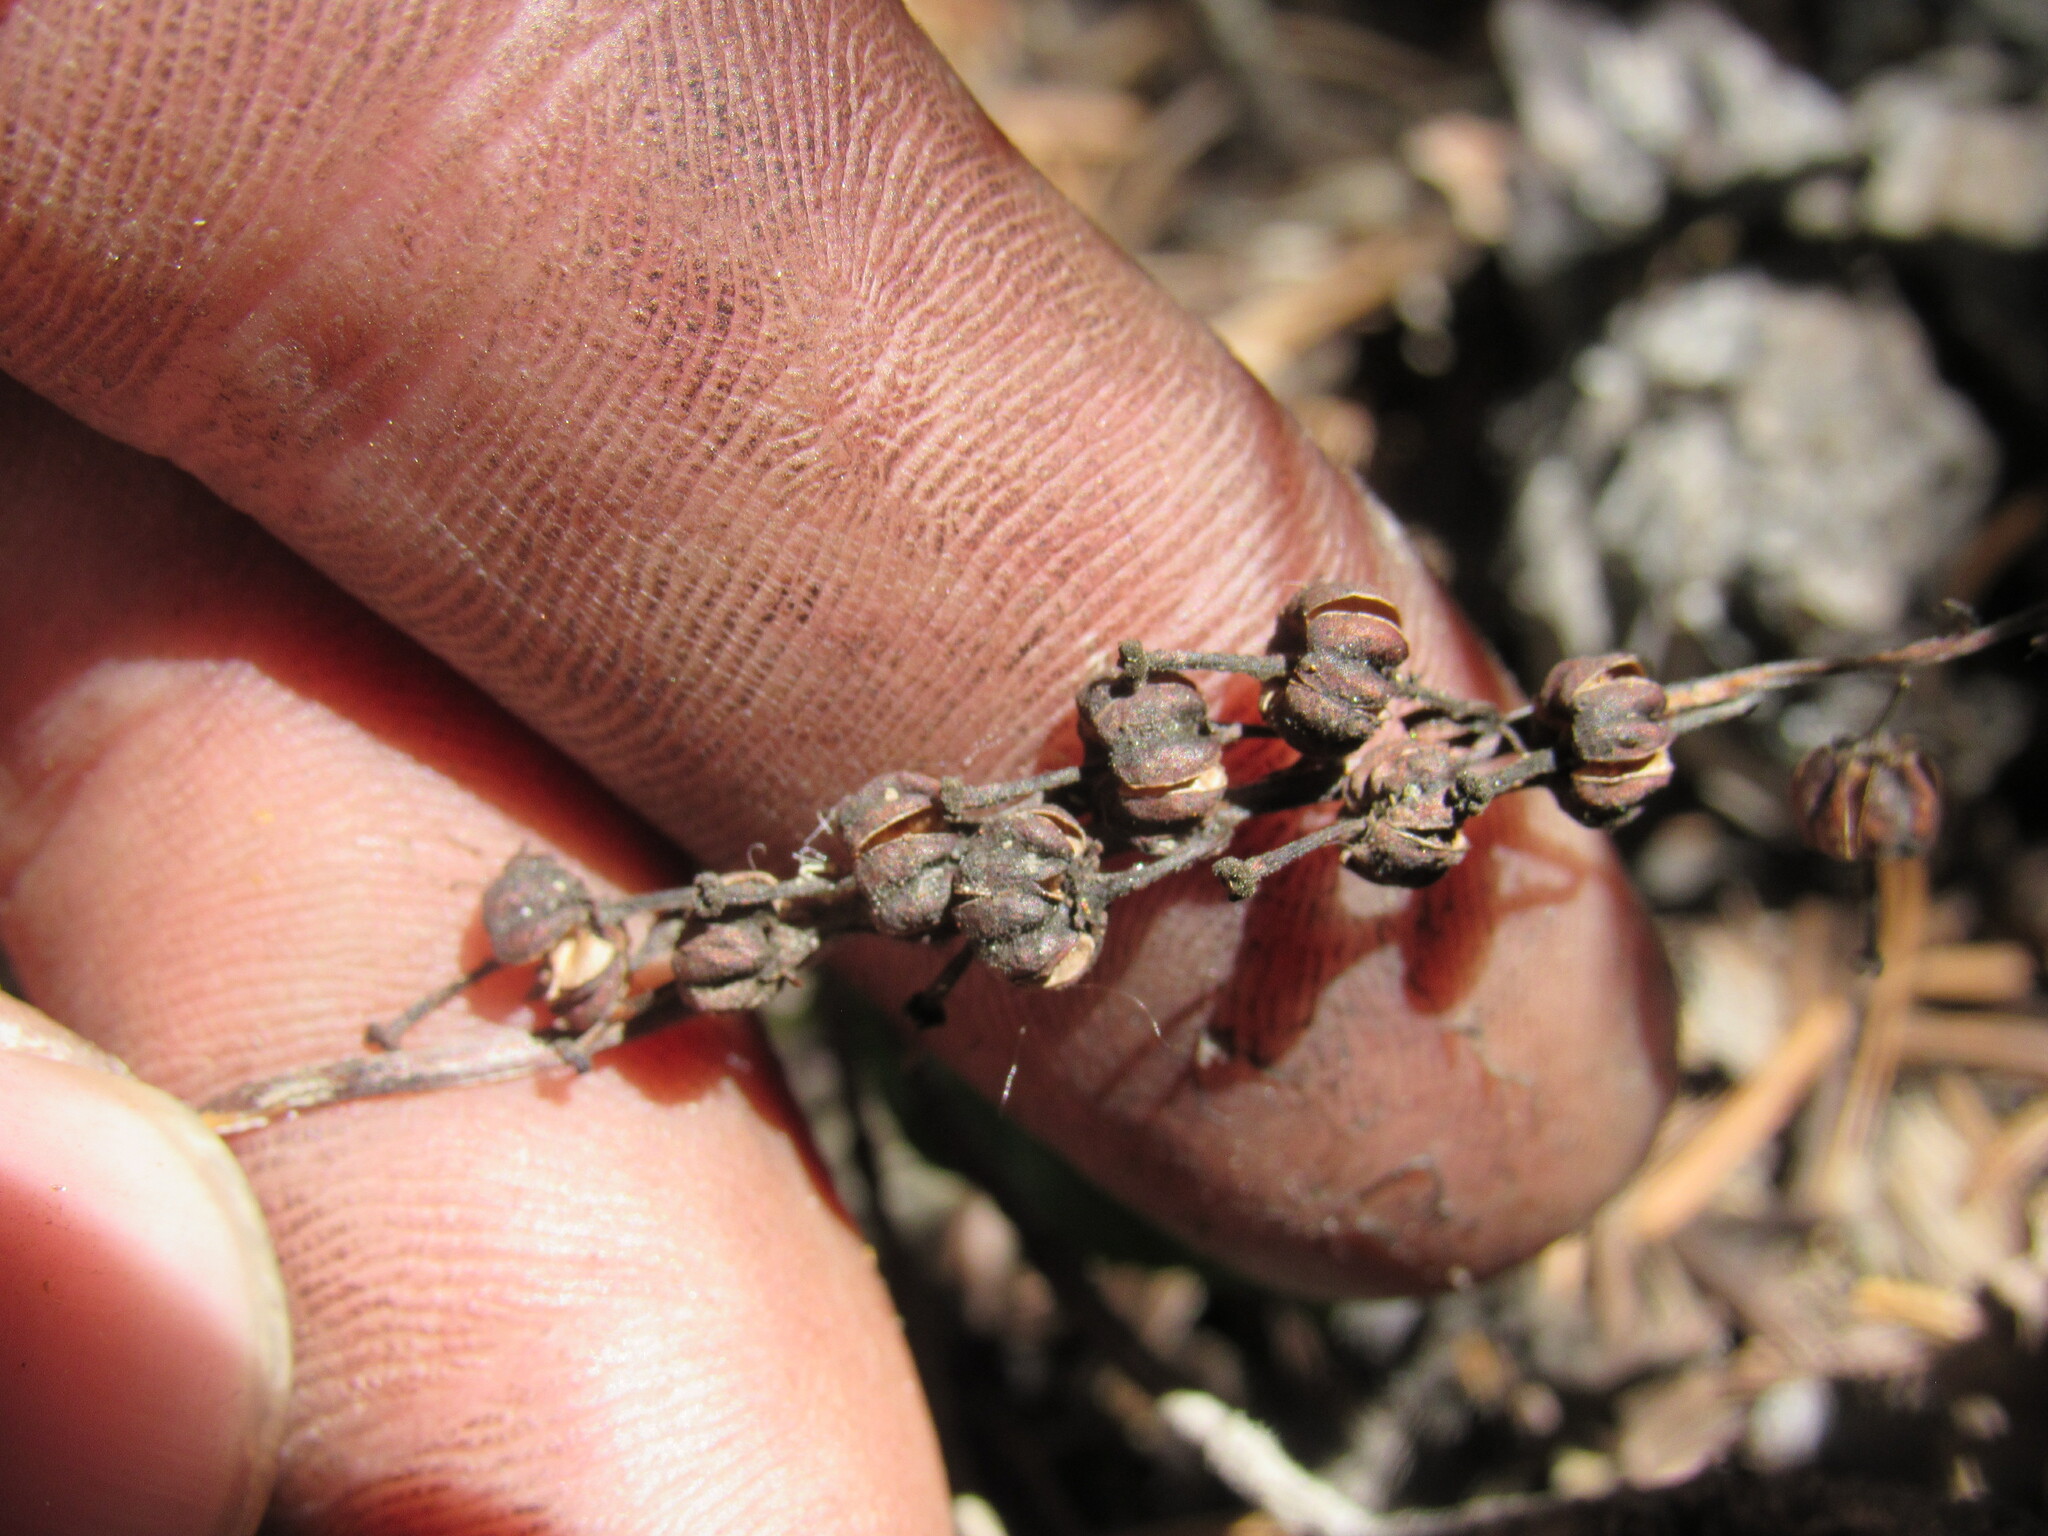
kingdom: Plantae
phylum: Tracheophyta
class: Magnoliopsida
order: Ericales
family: Ericaceae
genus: Orthilia
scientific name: Orthilia secunda
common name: One-sided orthilia
